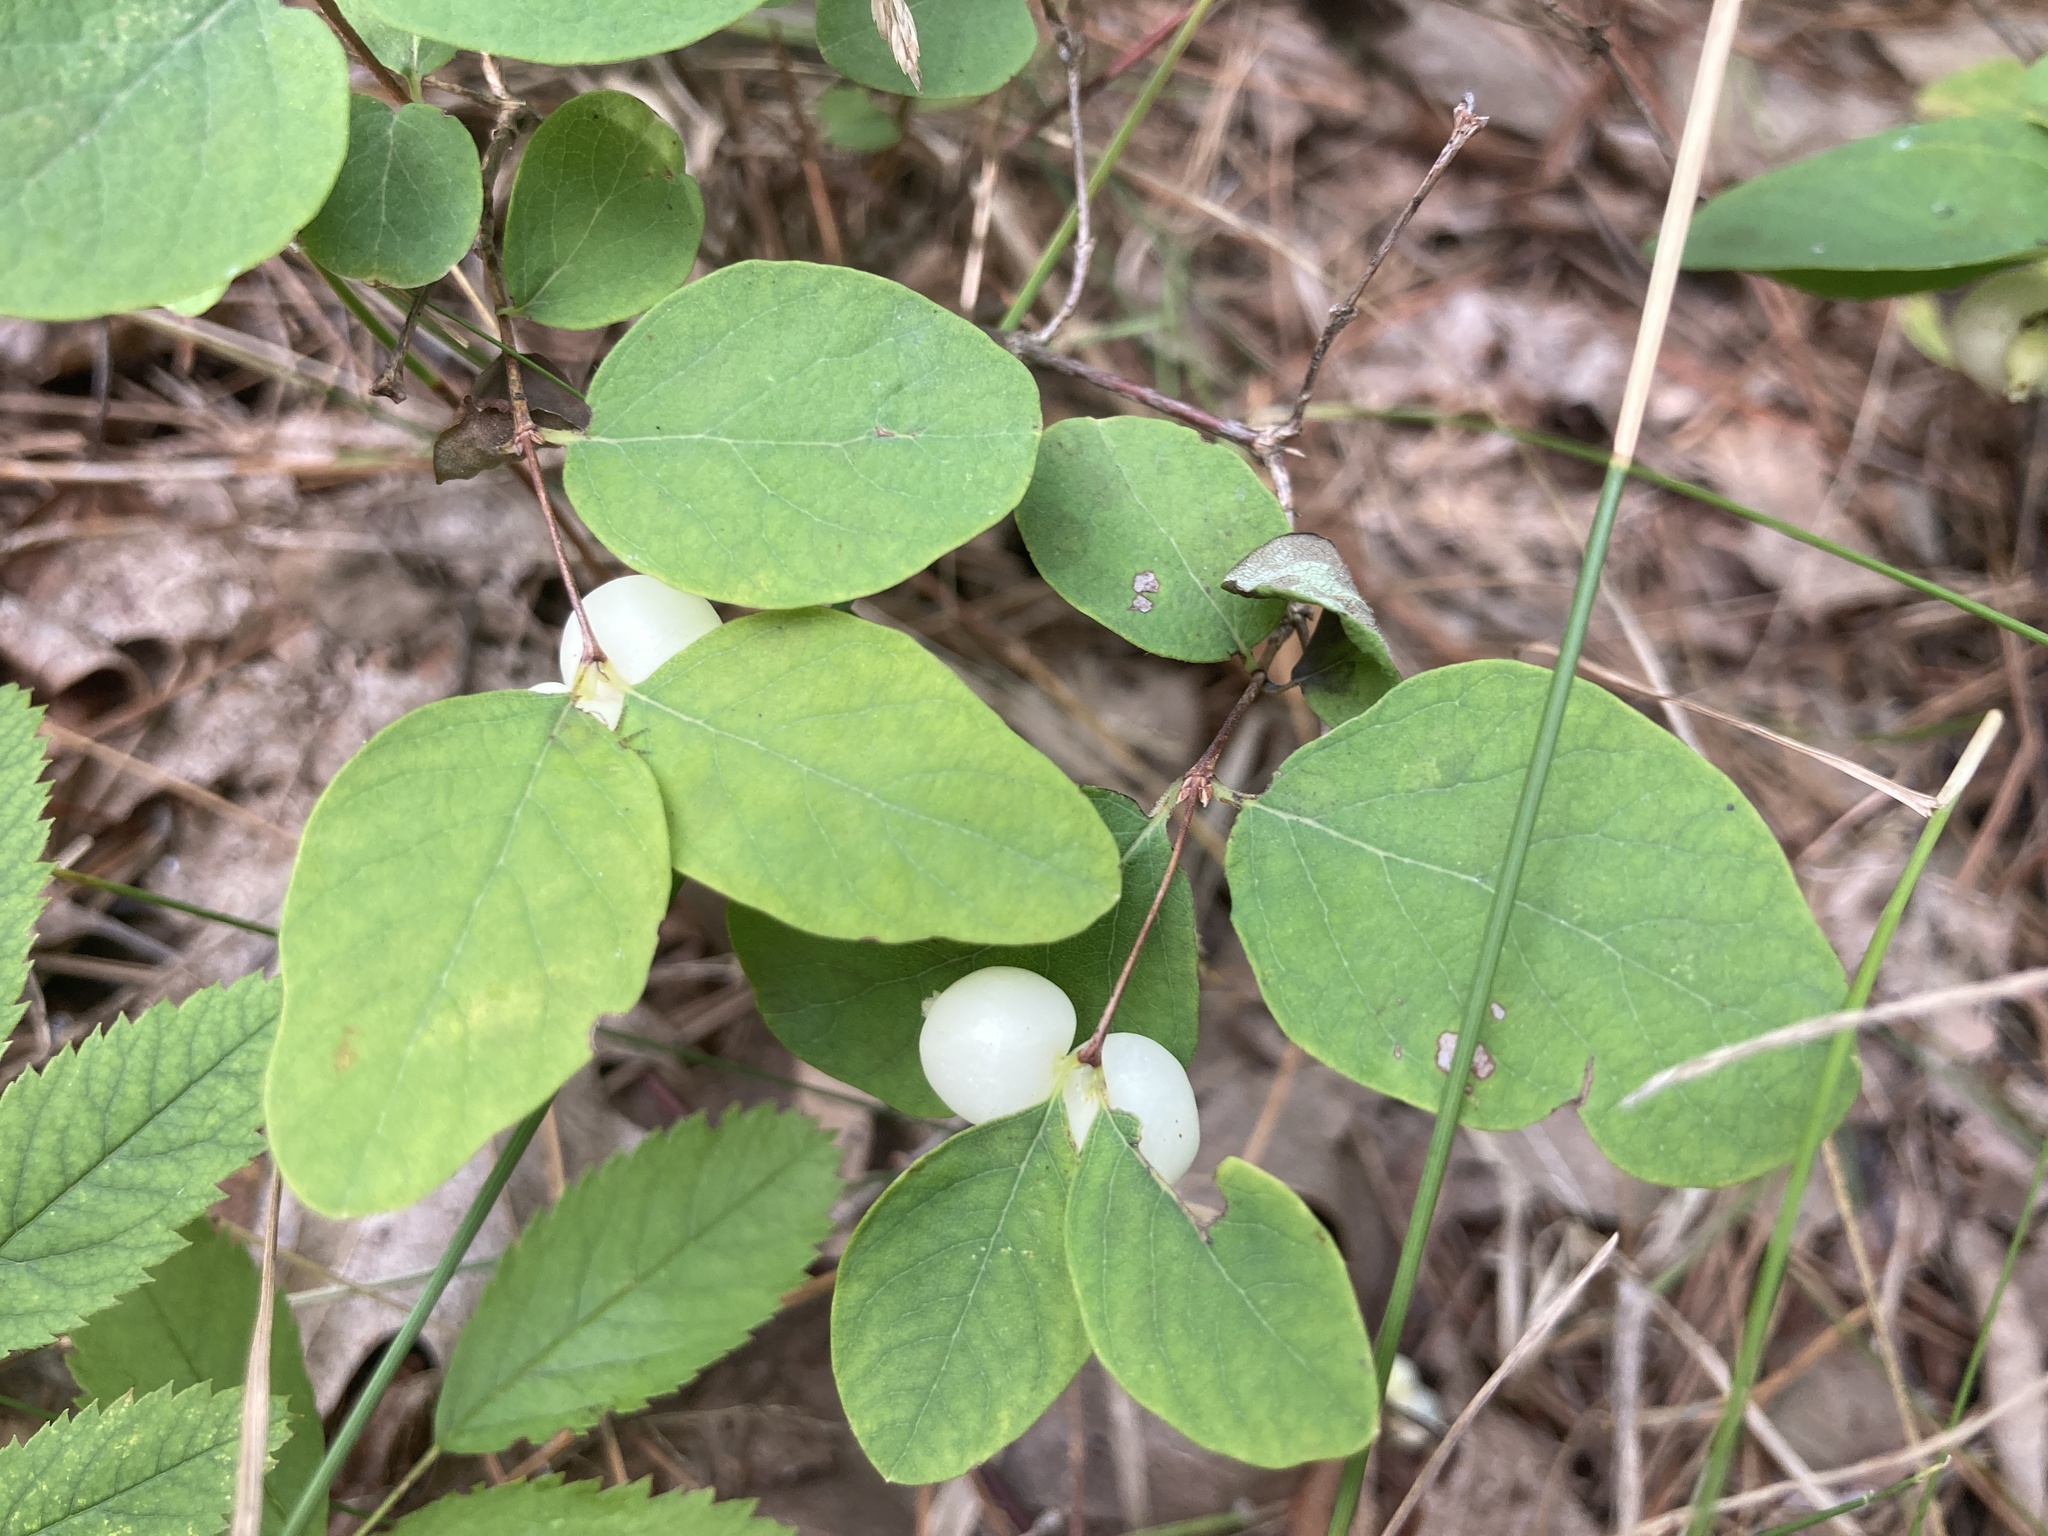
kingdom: Plantae
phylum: Tracheophyta
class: Magnoliopsida
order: Dipsacales
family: Caprifoliaceae
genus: Symphoricarpos
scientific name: Symphoricarpos albus
